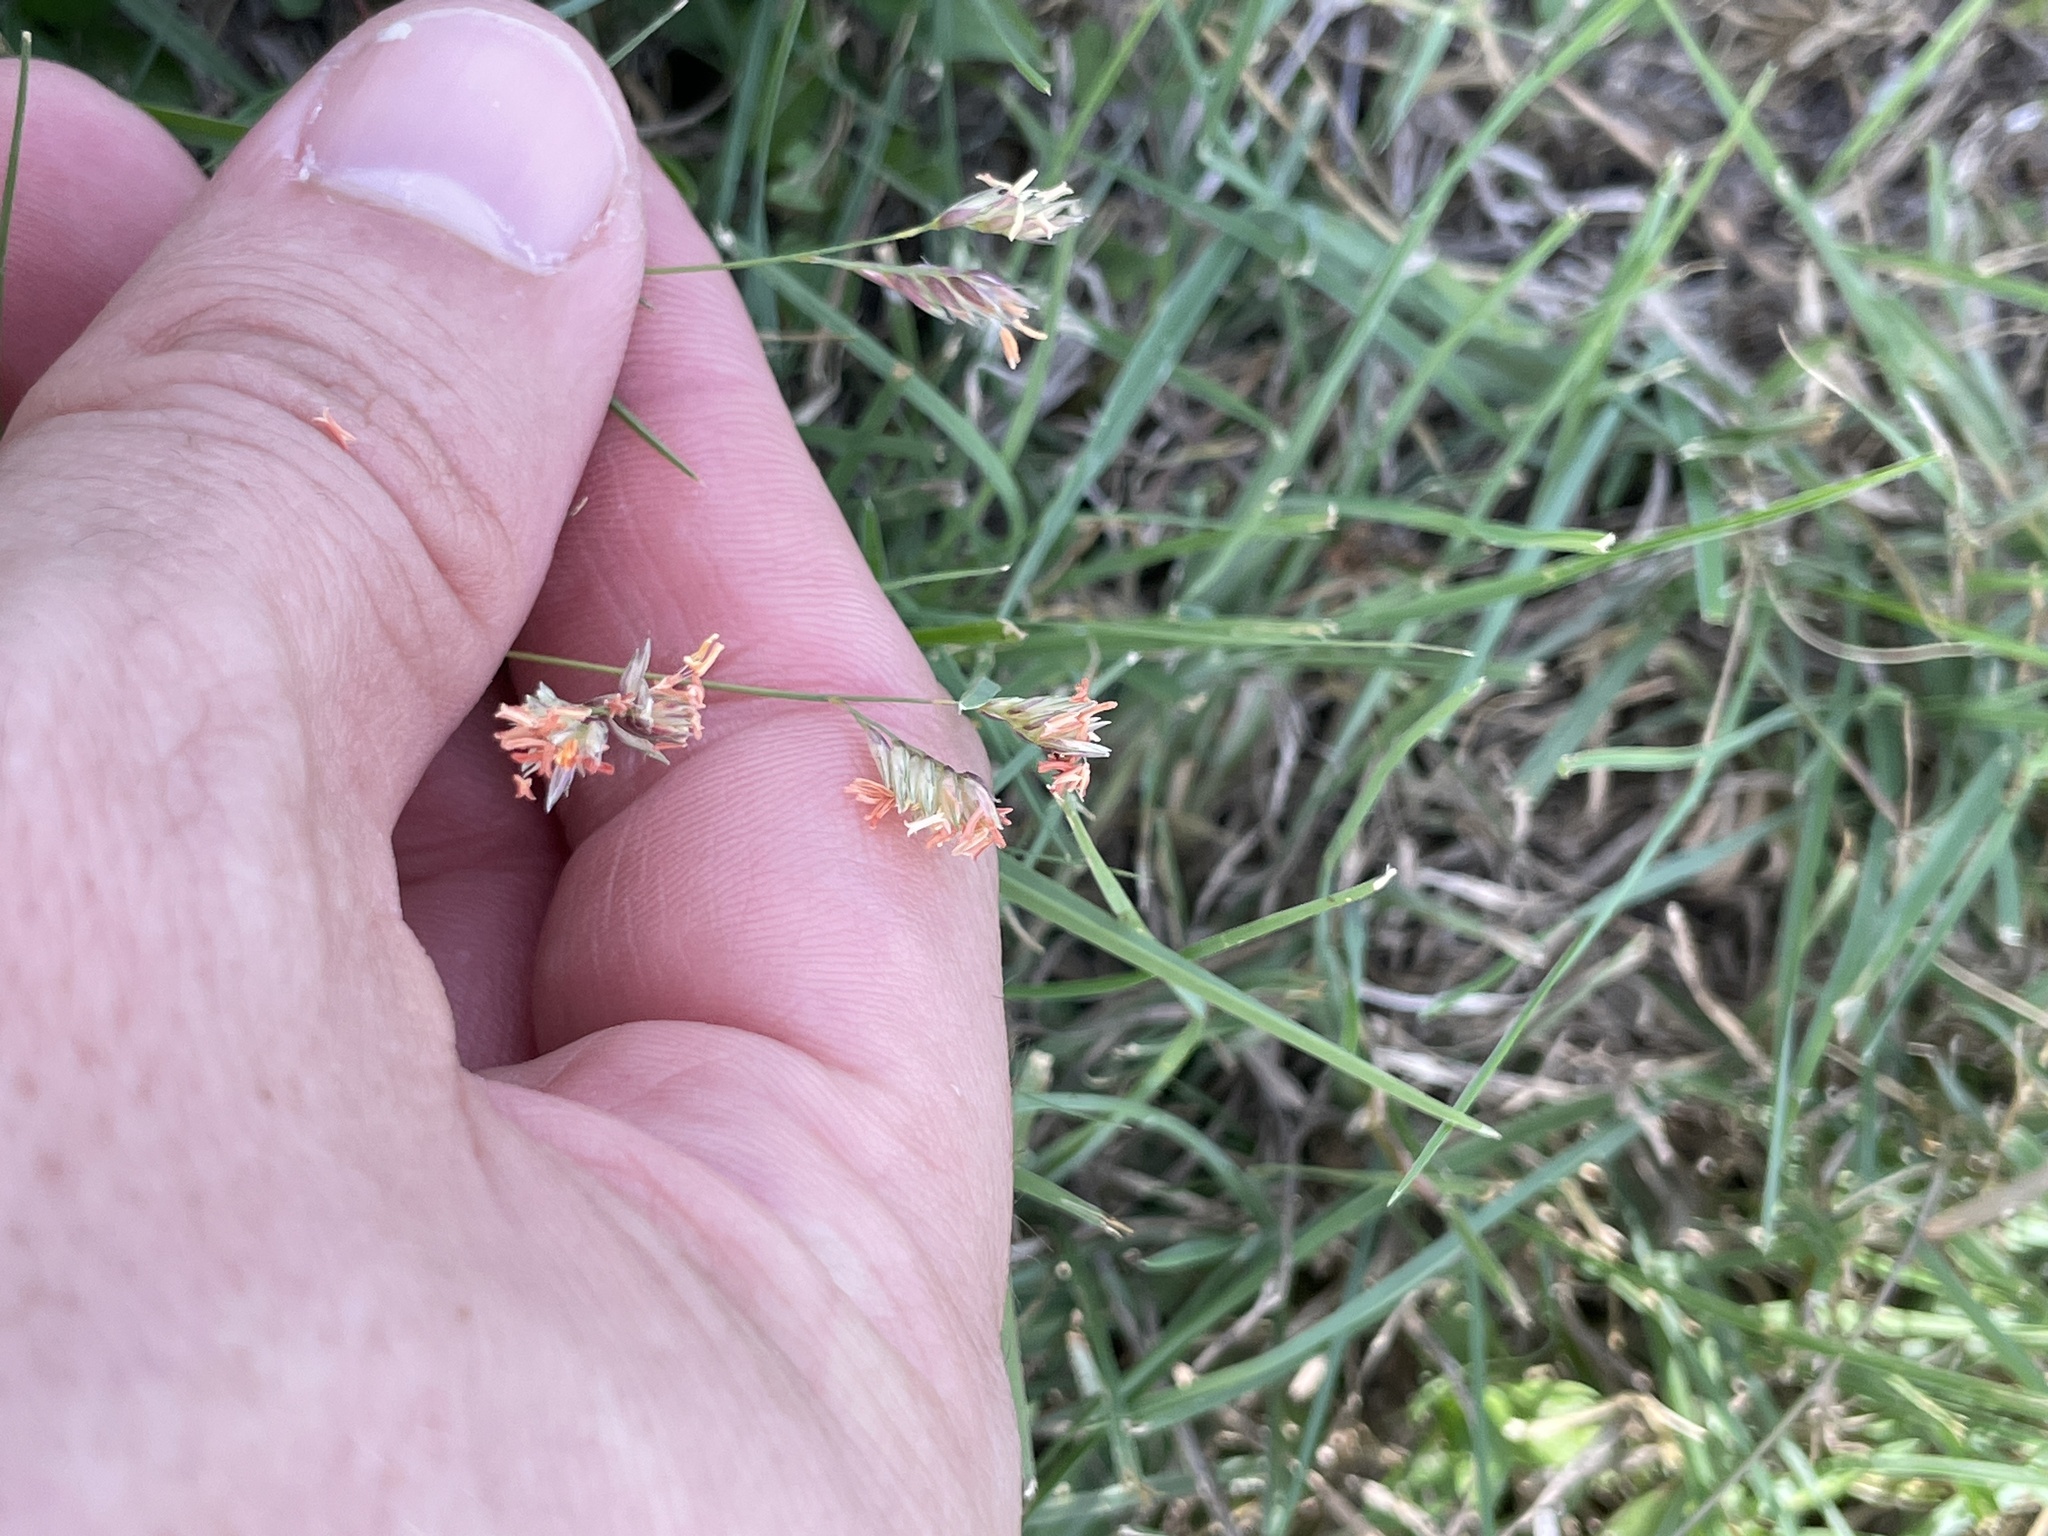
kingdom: Plantae
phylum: Tracheophyta
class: Liliopsida
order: Poales
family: Poaceae
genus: Bouteloua
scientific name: Bouteloua dactyloides
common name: Buffalo grass
